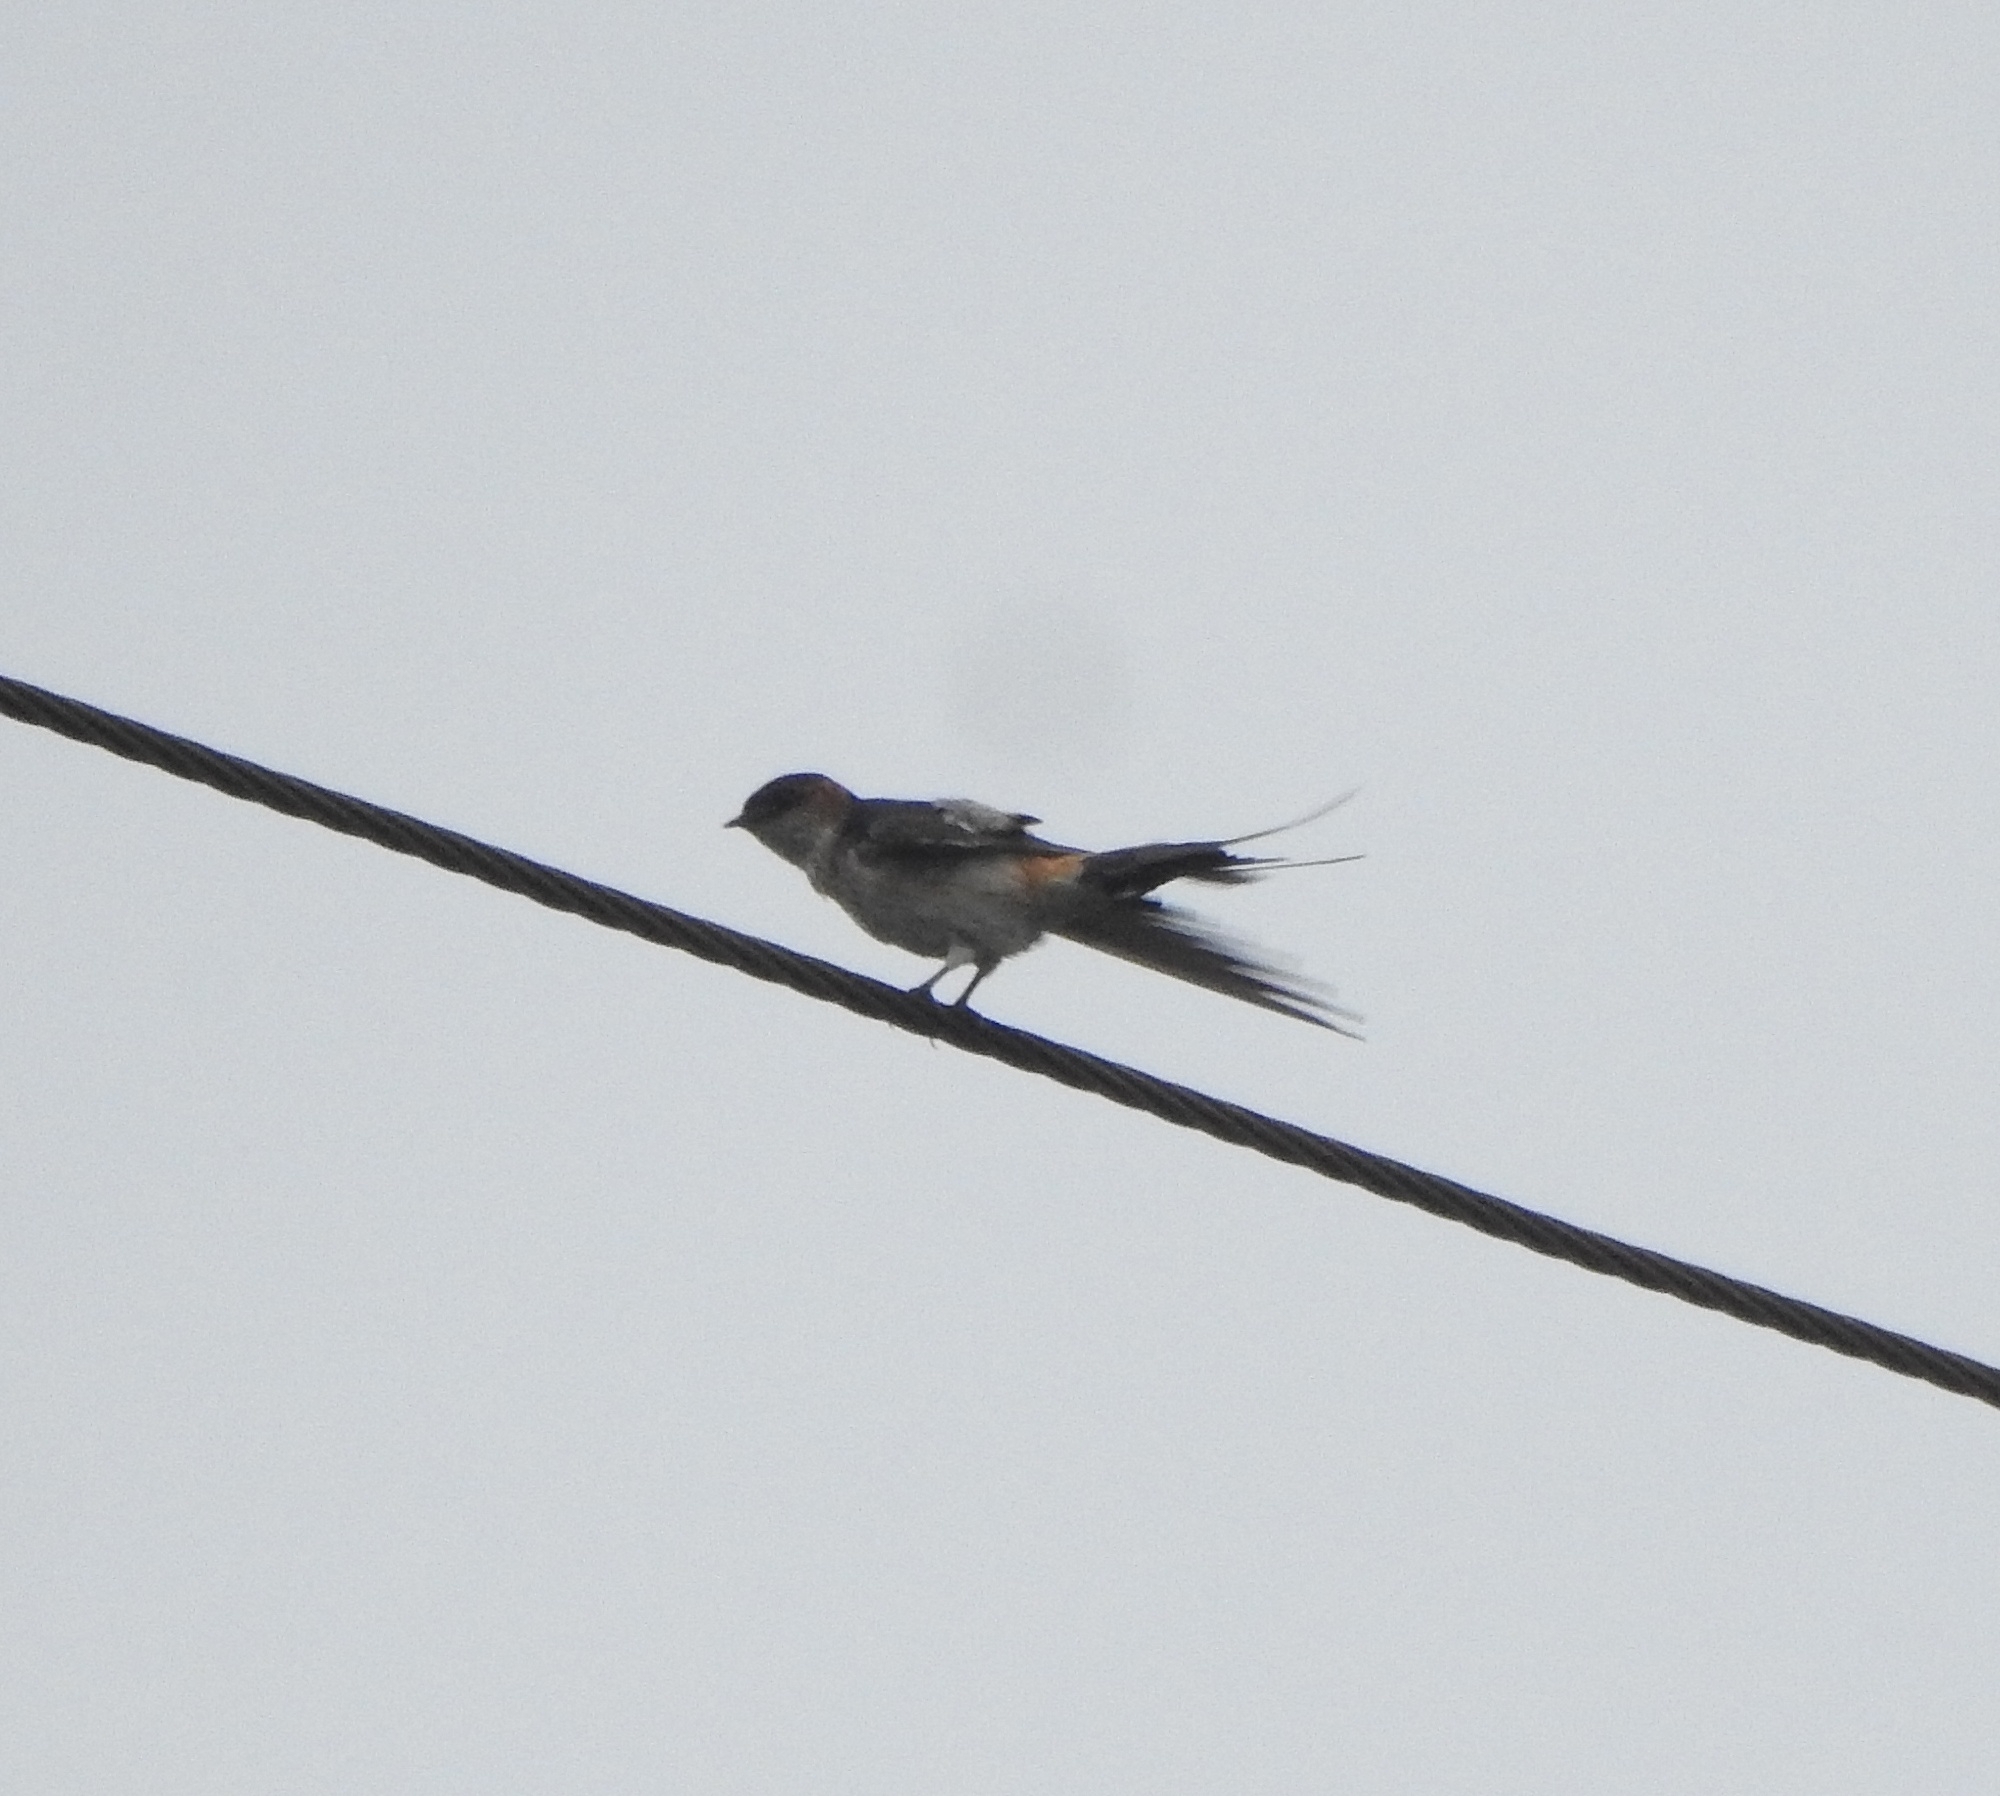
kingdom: Animalia
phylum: Chordata
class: Aves
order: Passeriformes
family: Hirundinidae
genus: Cecropis
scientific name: Cecropis daurica
